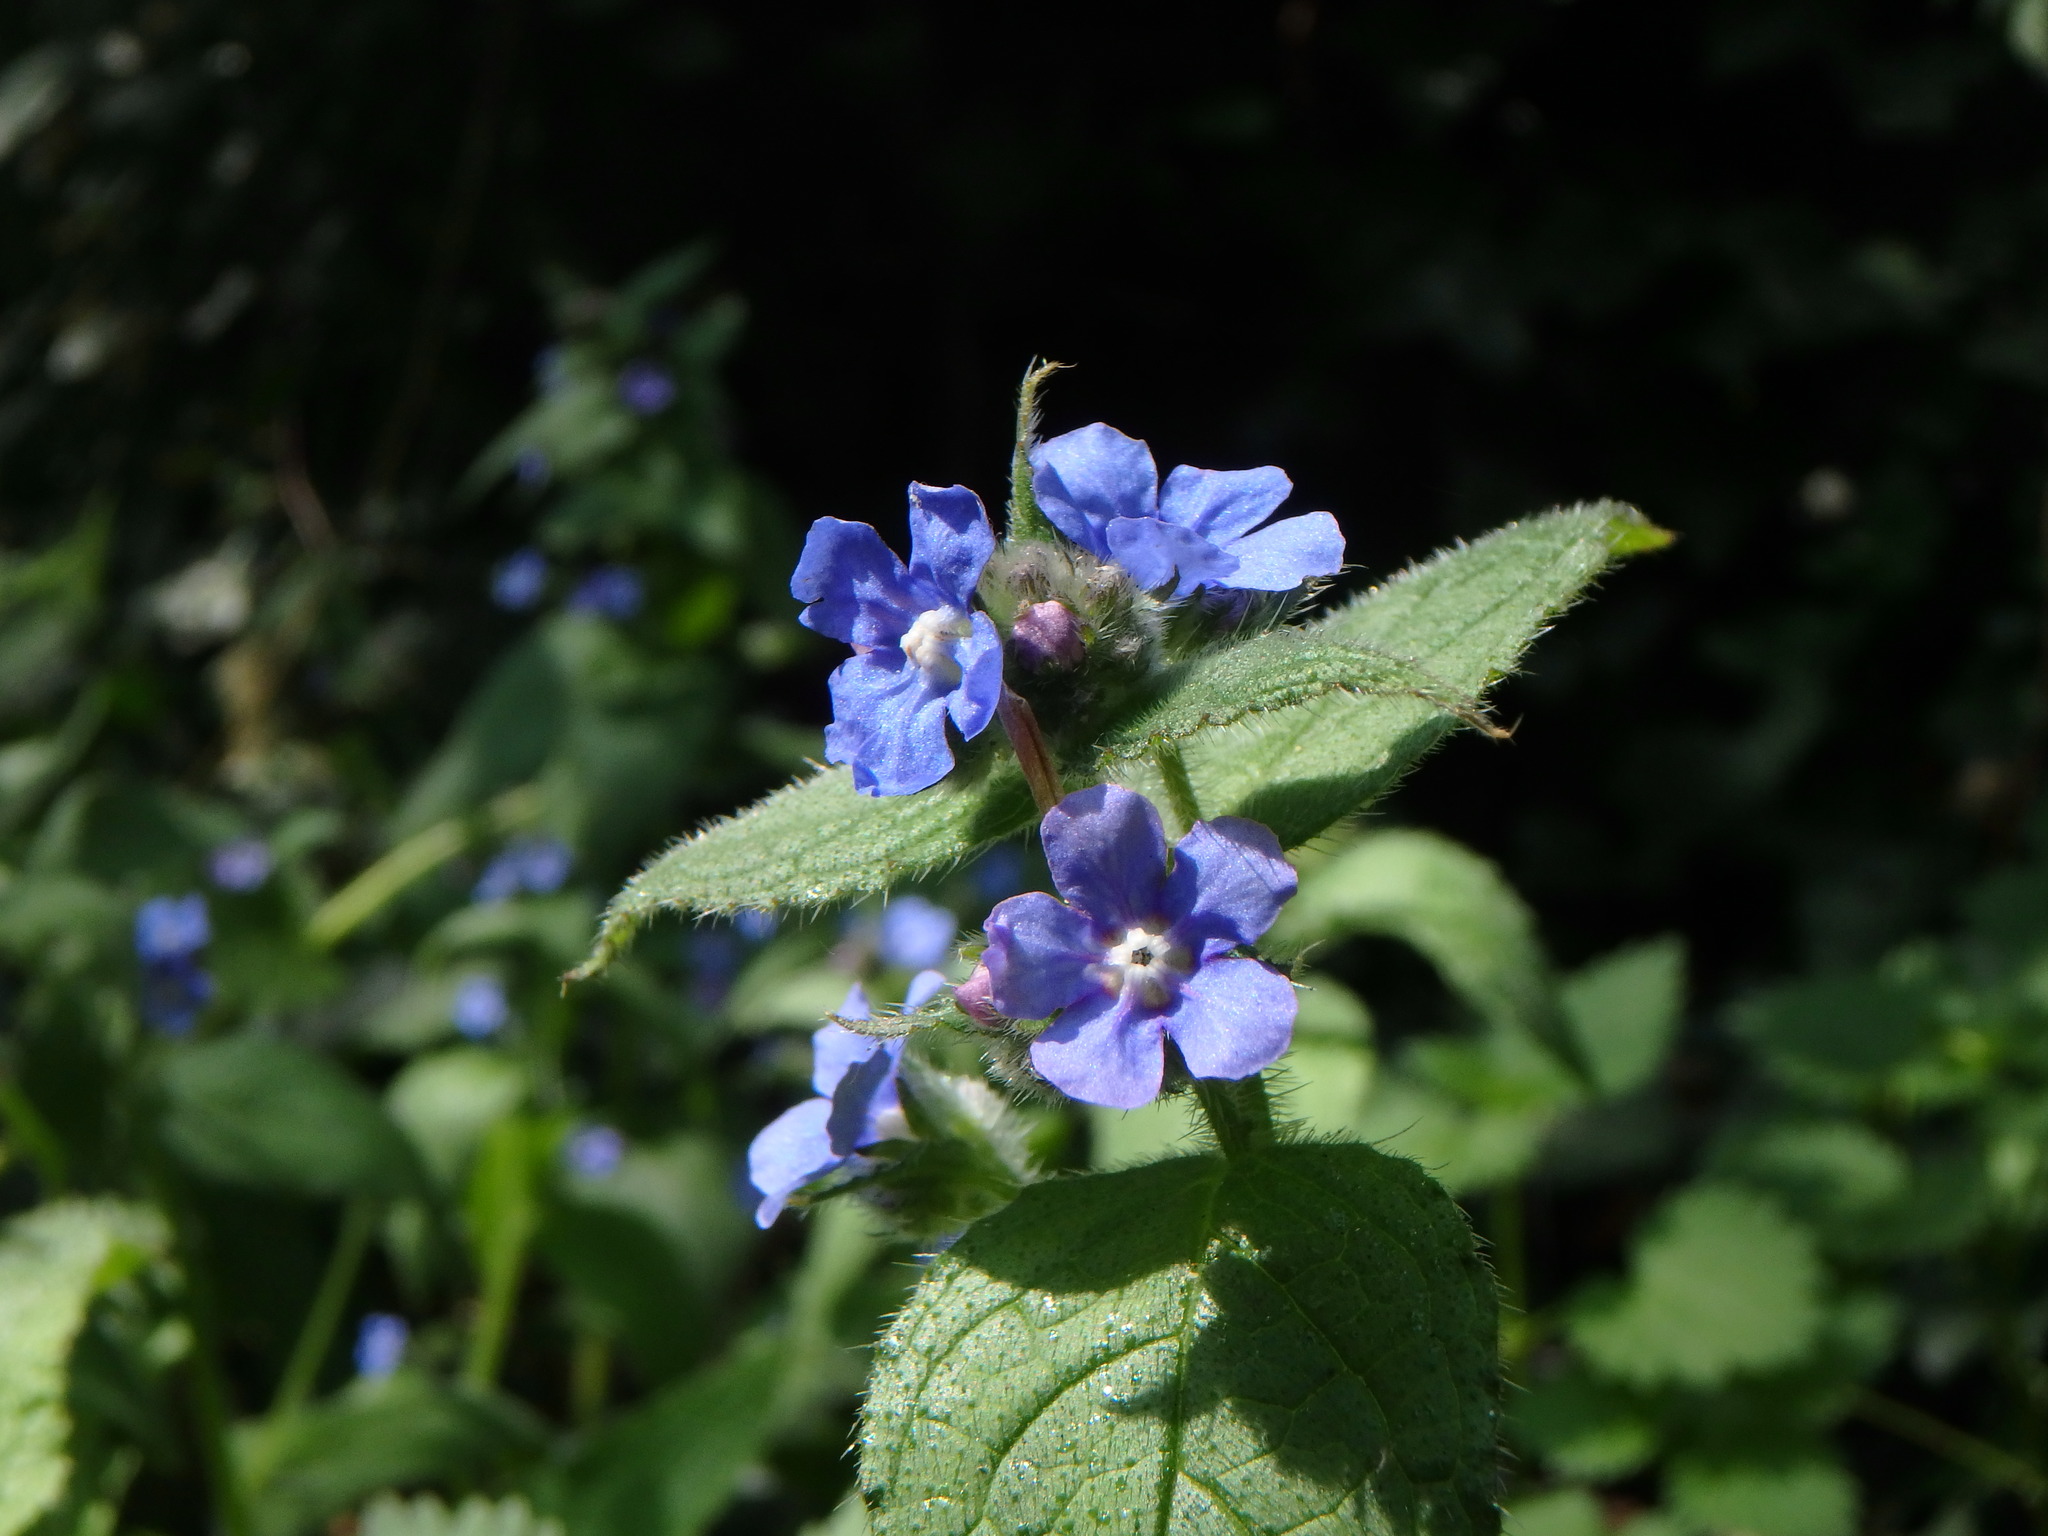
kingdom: Plantae
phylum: Tracheophyta
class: Magnoliopsida
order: Boraginales
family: Boraginaceae
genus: Pentaglottis
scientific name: Pentaglottis sempervirens
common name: Green alkanet
